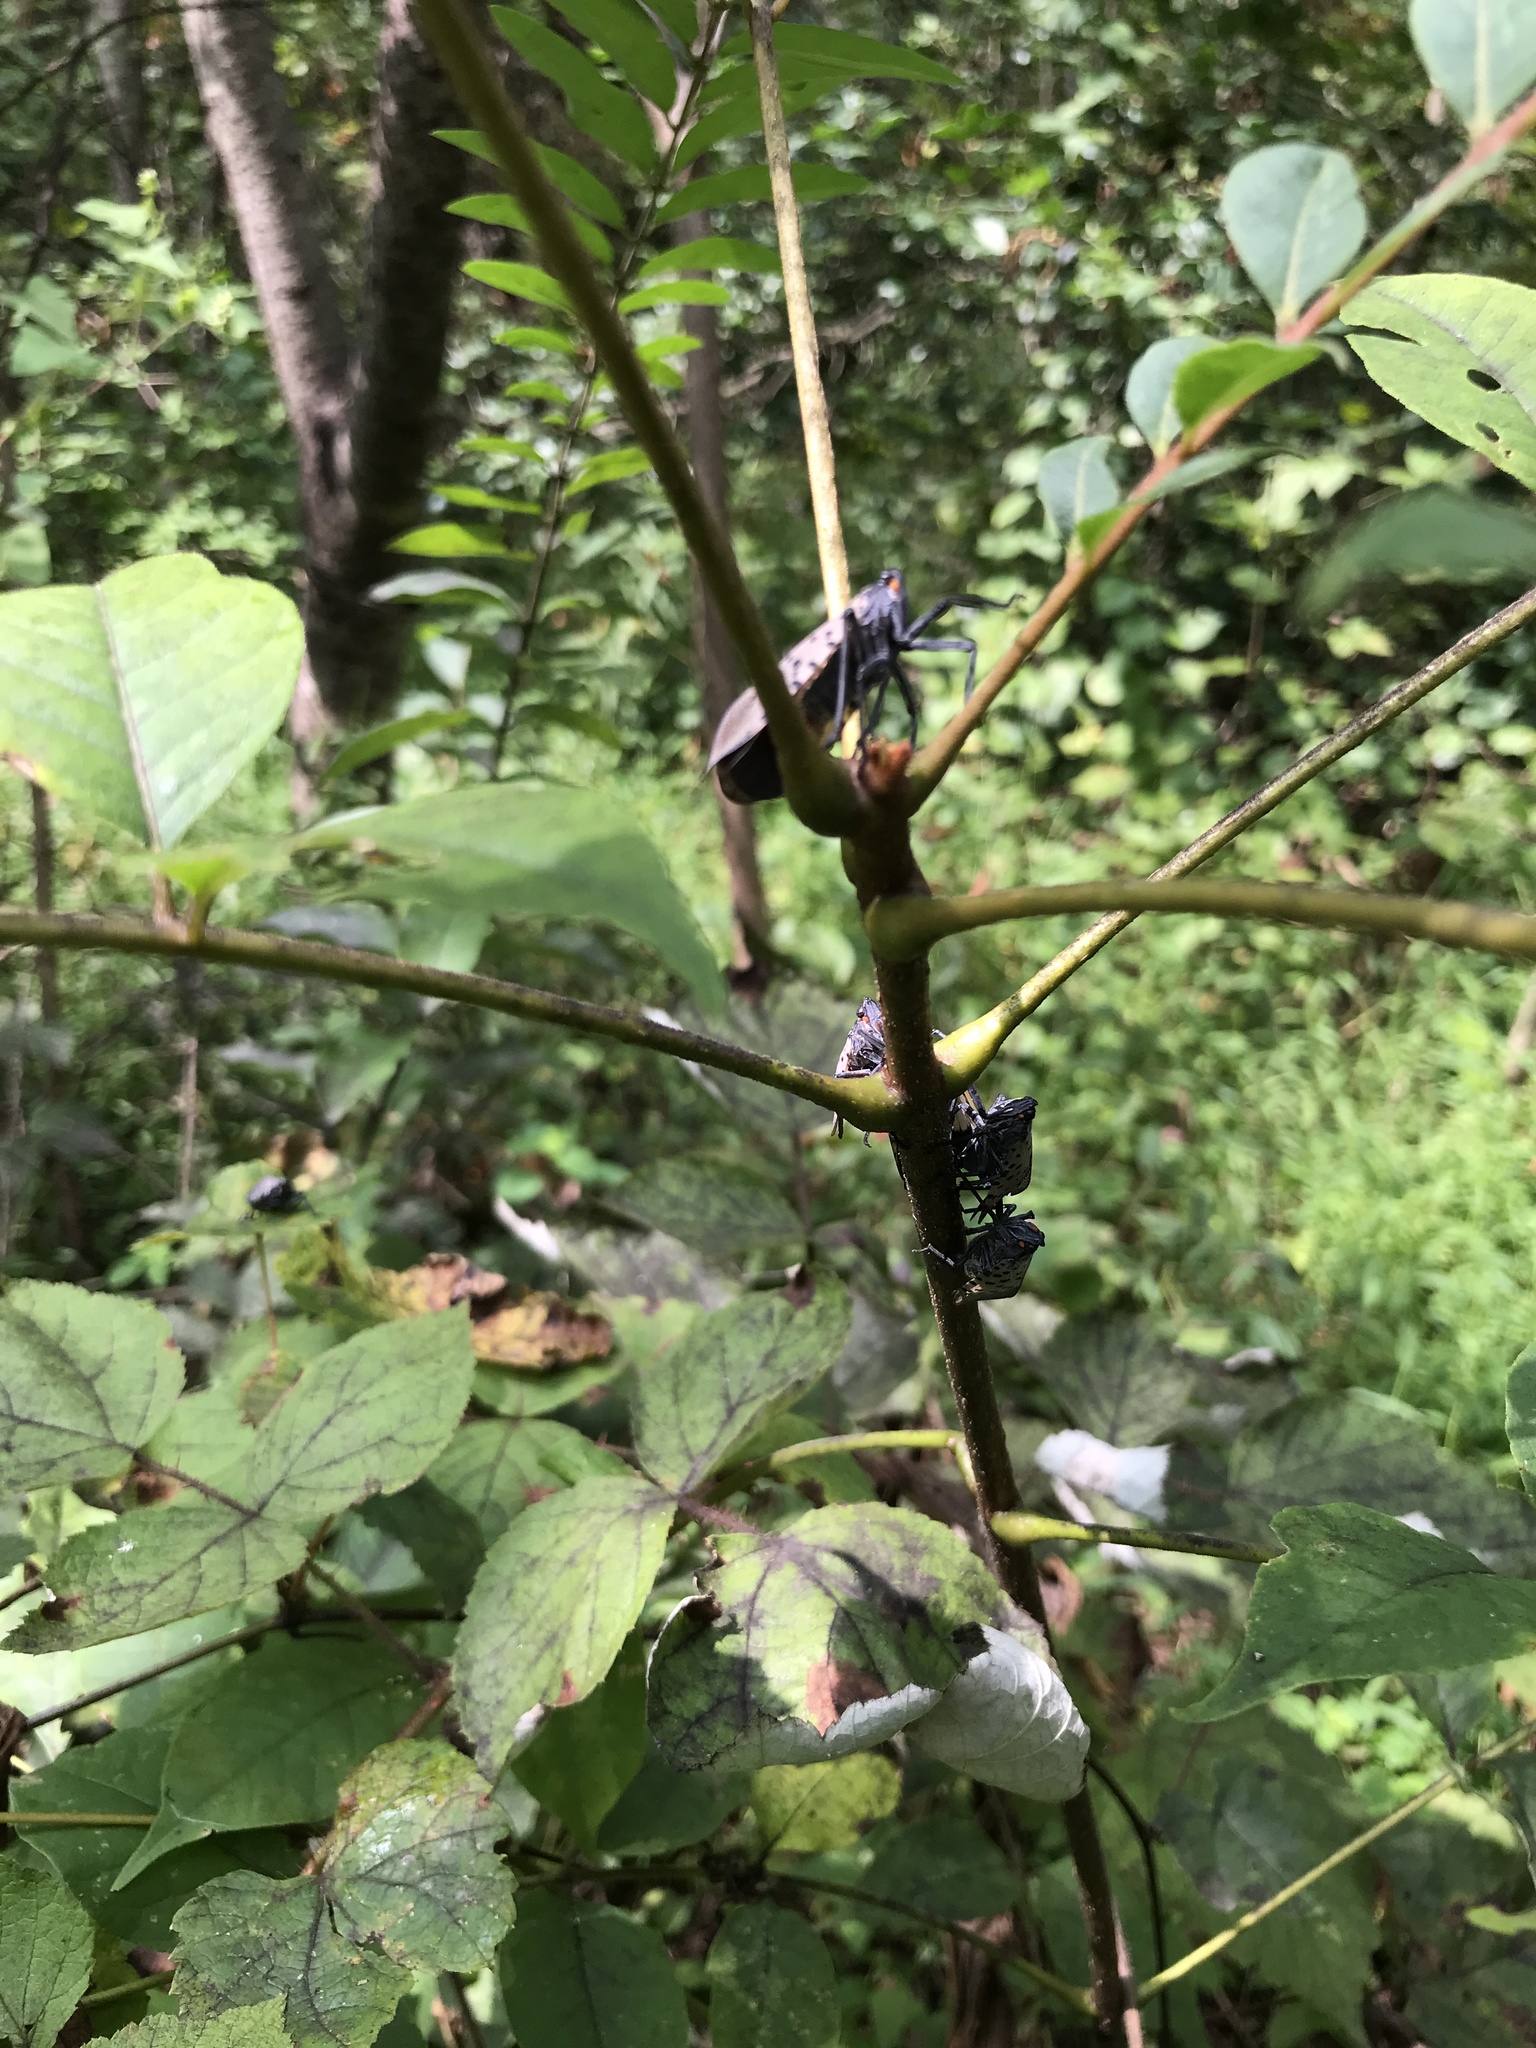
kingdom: Animalia
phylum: Arthropoda
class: Insecta
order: Hemiptera
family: Fulgoridae
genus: Lycorma
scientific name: Lycorma delicatula
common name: Spotted lanternfly
